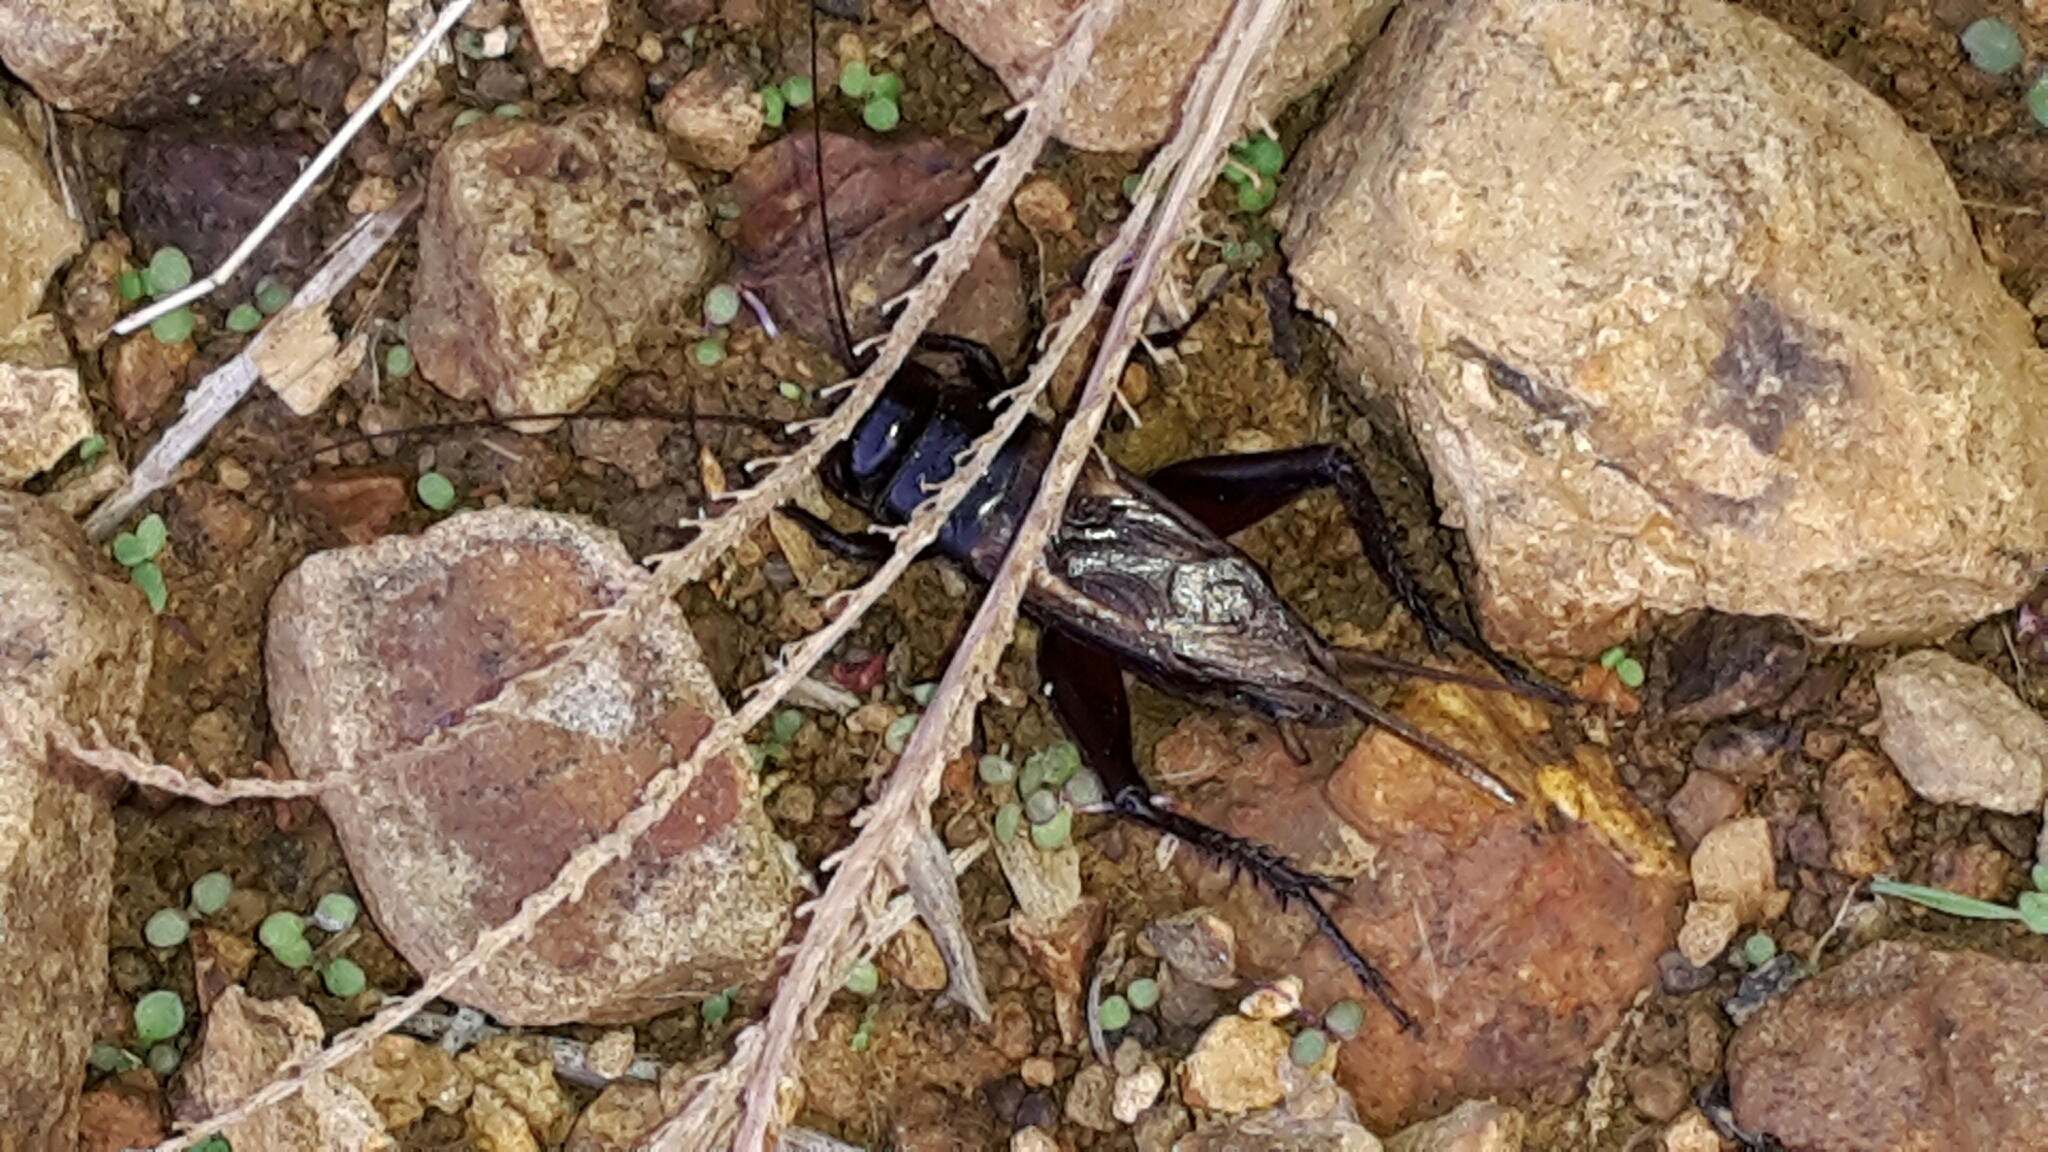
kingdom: Animalia
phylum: Arthropoda
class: Insecta
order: Orthoptera
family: Gryllidae
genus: Teleogryllus
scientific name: Teleogryllus commodus
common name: Black field cricket
